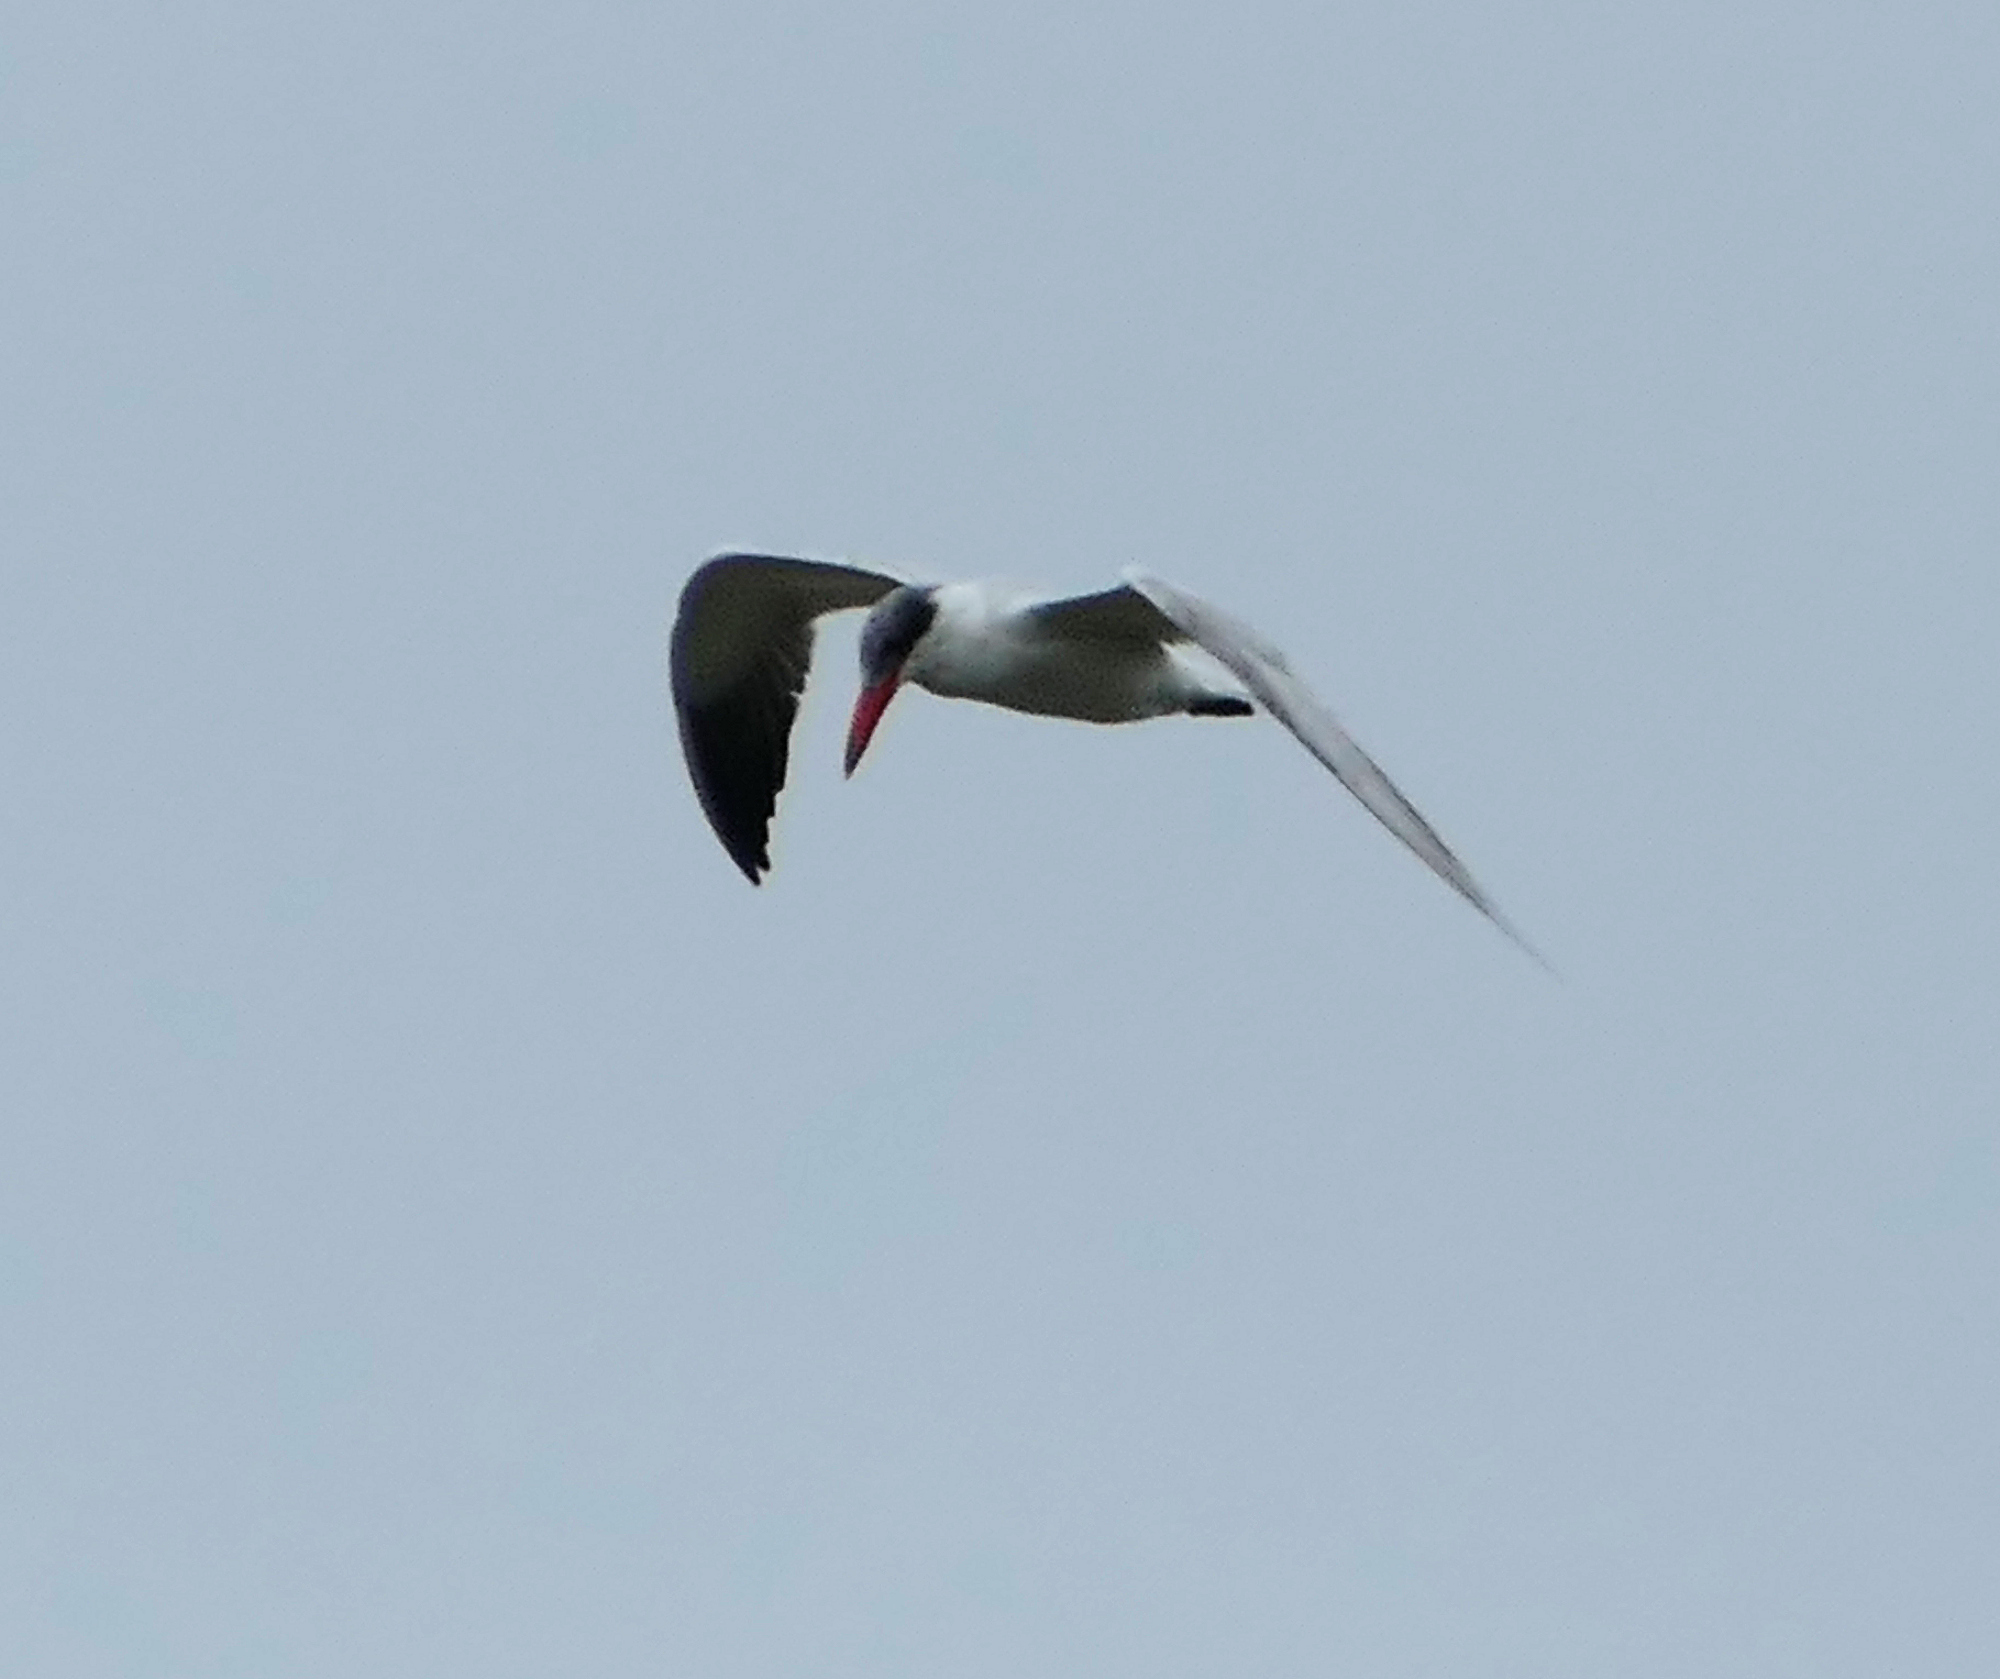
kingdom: Animalia
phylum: Chordata
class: Aves
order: Charadriiformes
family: Laridae
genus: Hydroprogne
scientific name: Hydroprogne caspia
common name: Caspian tern
